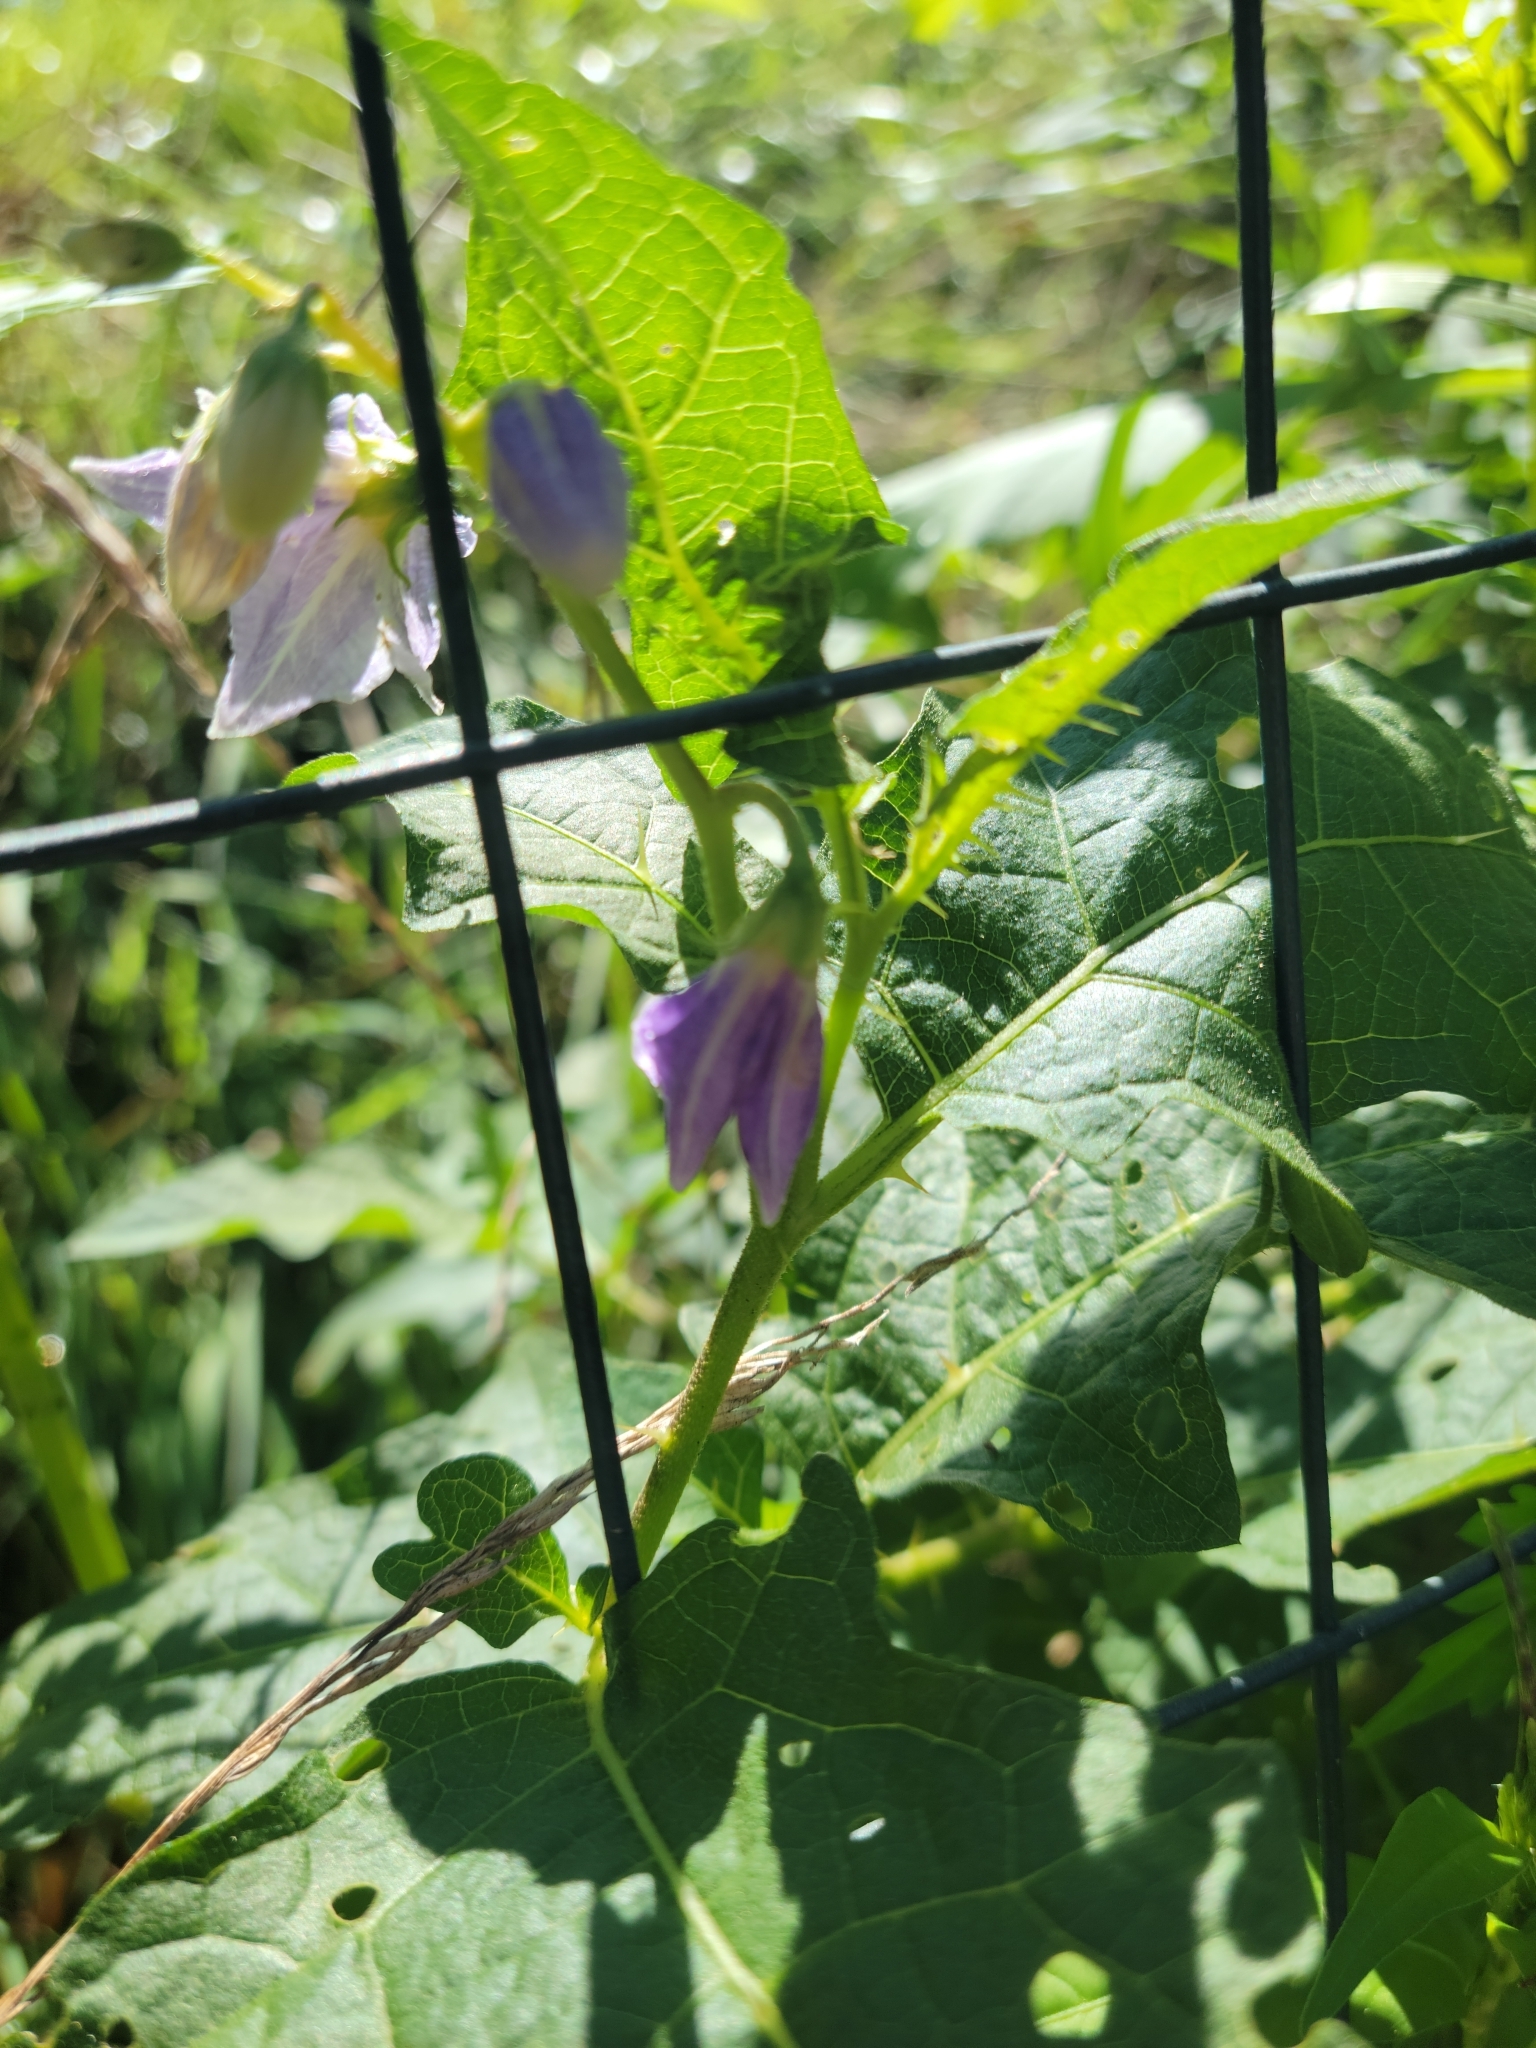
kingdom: Plantae
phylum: Tracheophyta
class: Magnoliopsida
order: Solanales
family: Solanaceae
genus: Solanum
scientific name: Solanum carolinense
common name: Horse-nettle
